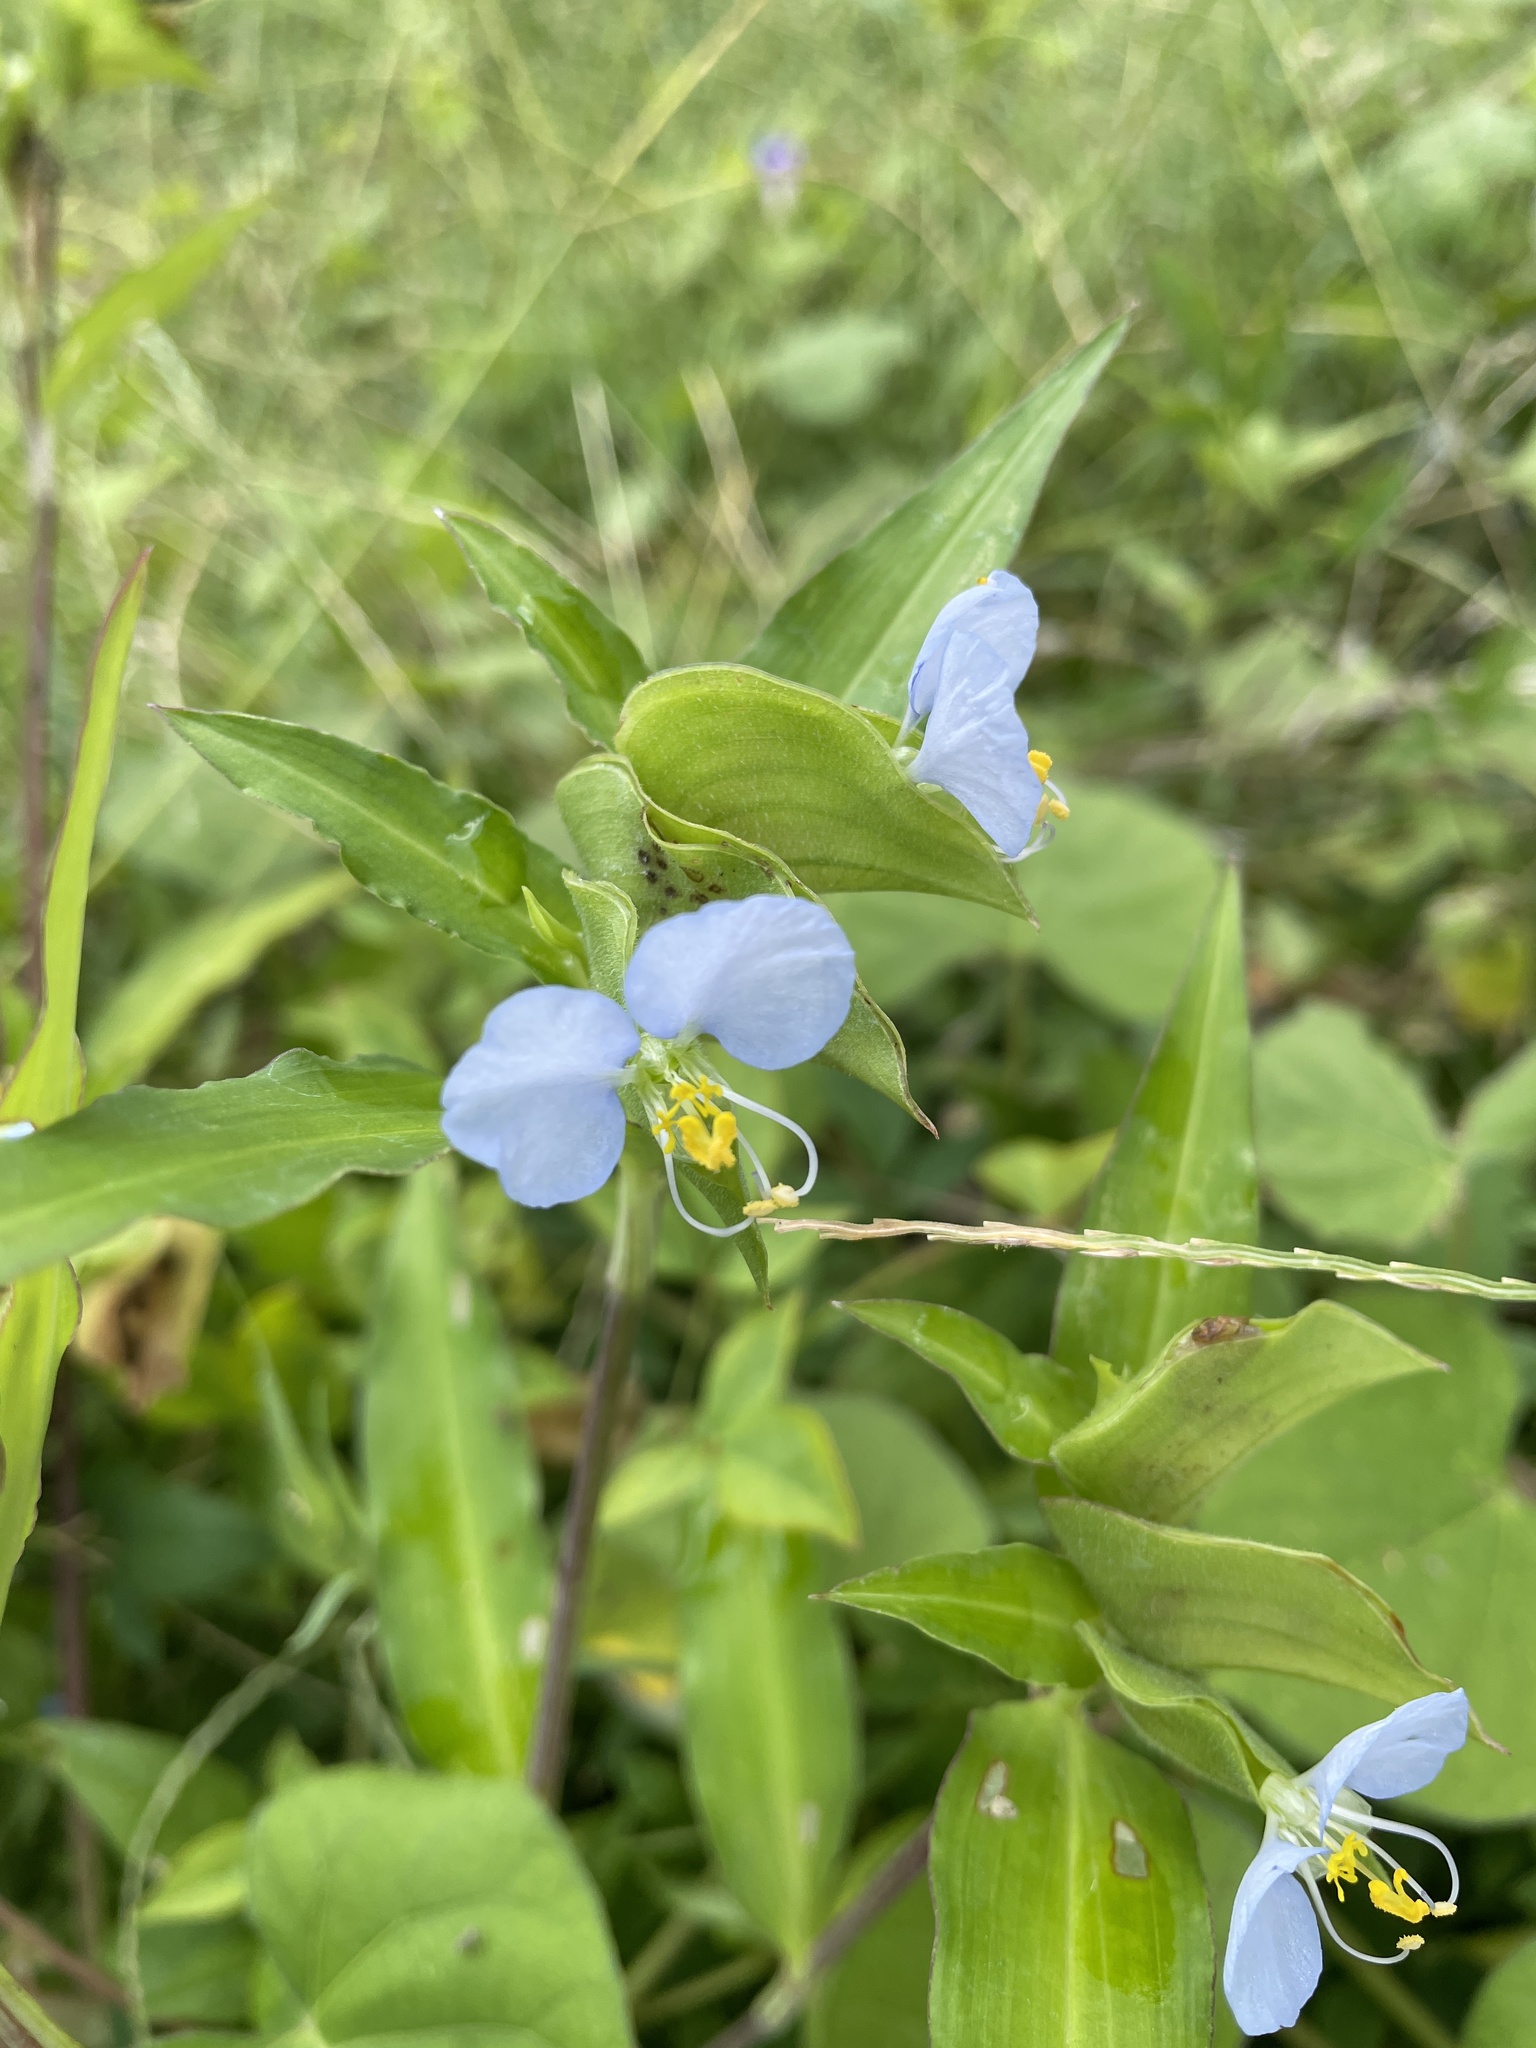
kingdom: Plantae
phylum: Tracheophyta
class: Liliopsida
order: Commelinales
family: Commelinaceae
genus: Commelina
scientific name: Commelina communis
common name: Asiatic dayflower
